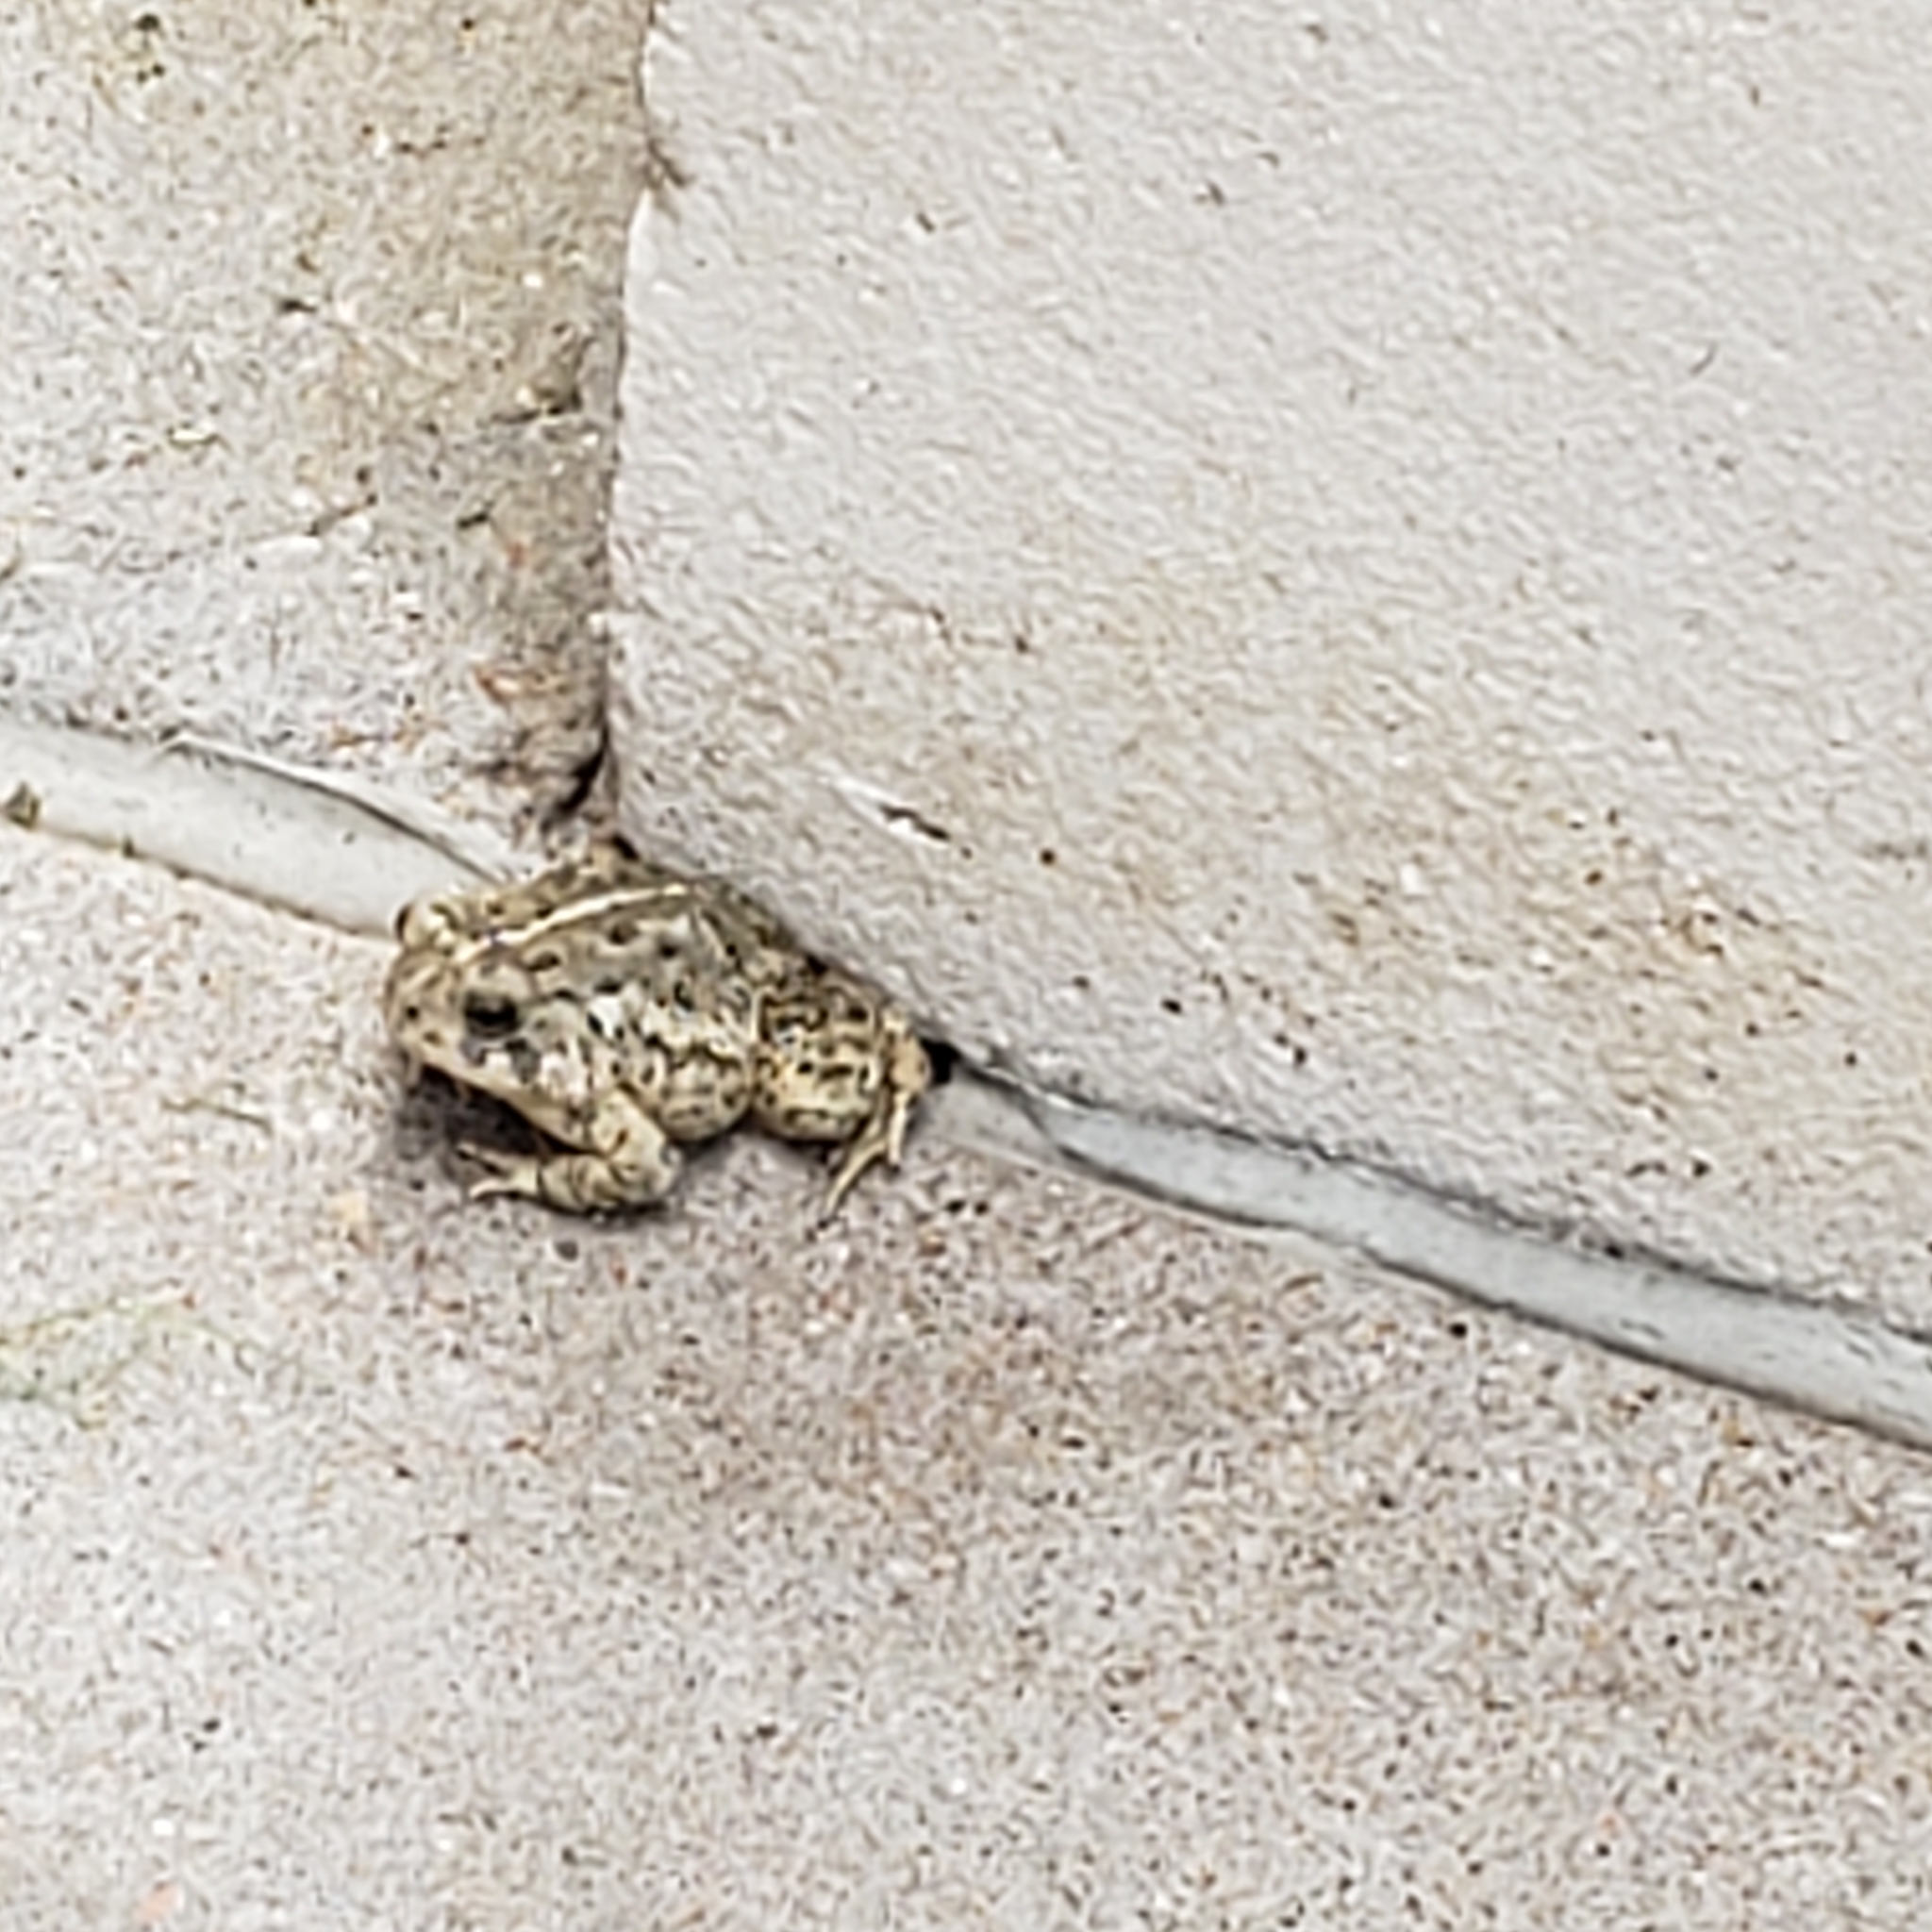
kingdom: Animalia
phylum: Chordata
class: Amphibia
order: Anura
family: Bufonidae
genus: Anaxyrus
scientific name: Anaxyrus woodhousii
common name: Woodhouse's toad
